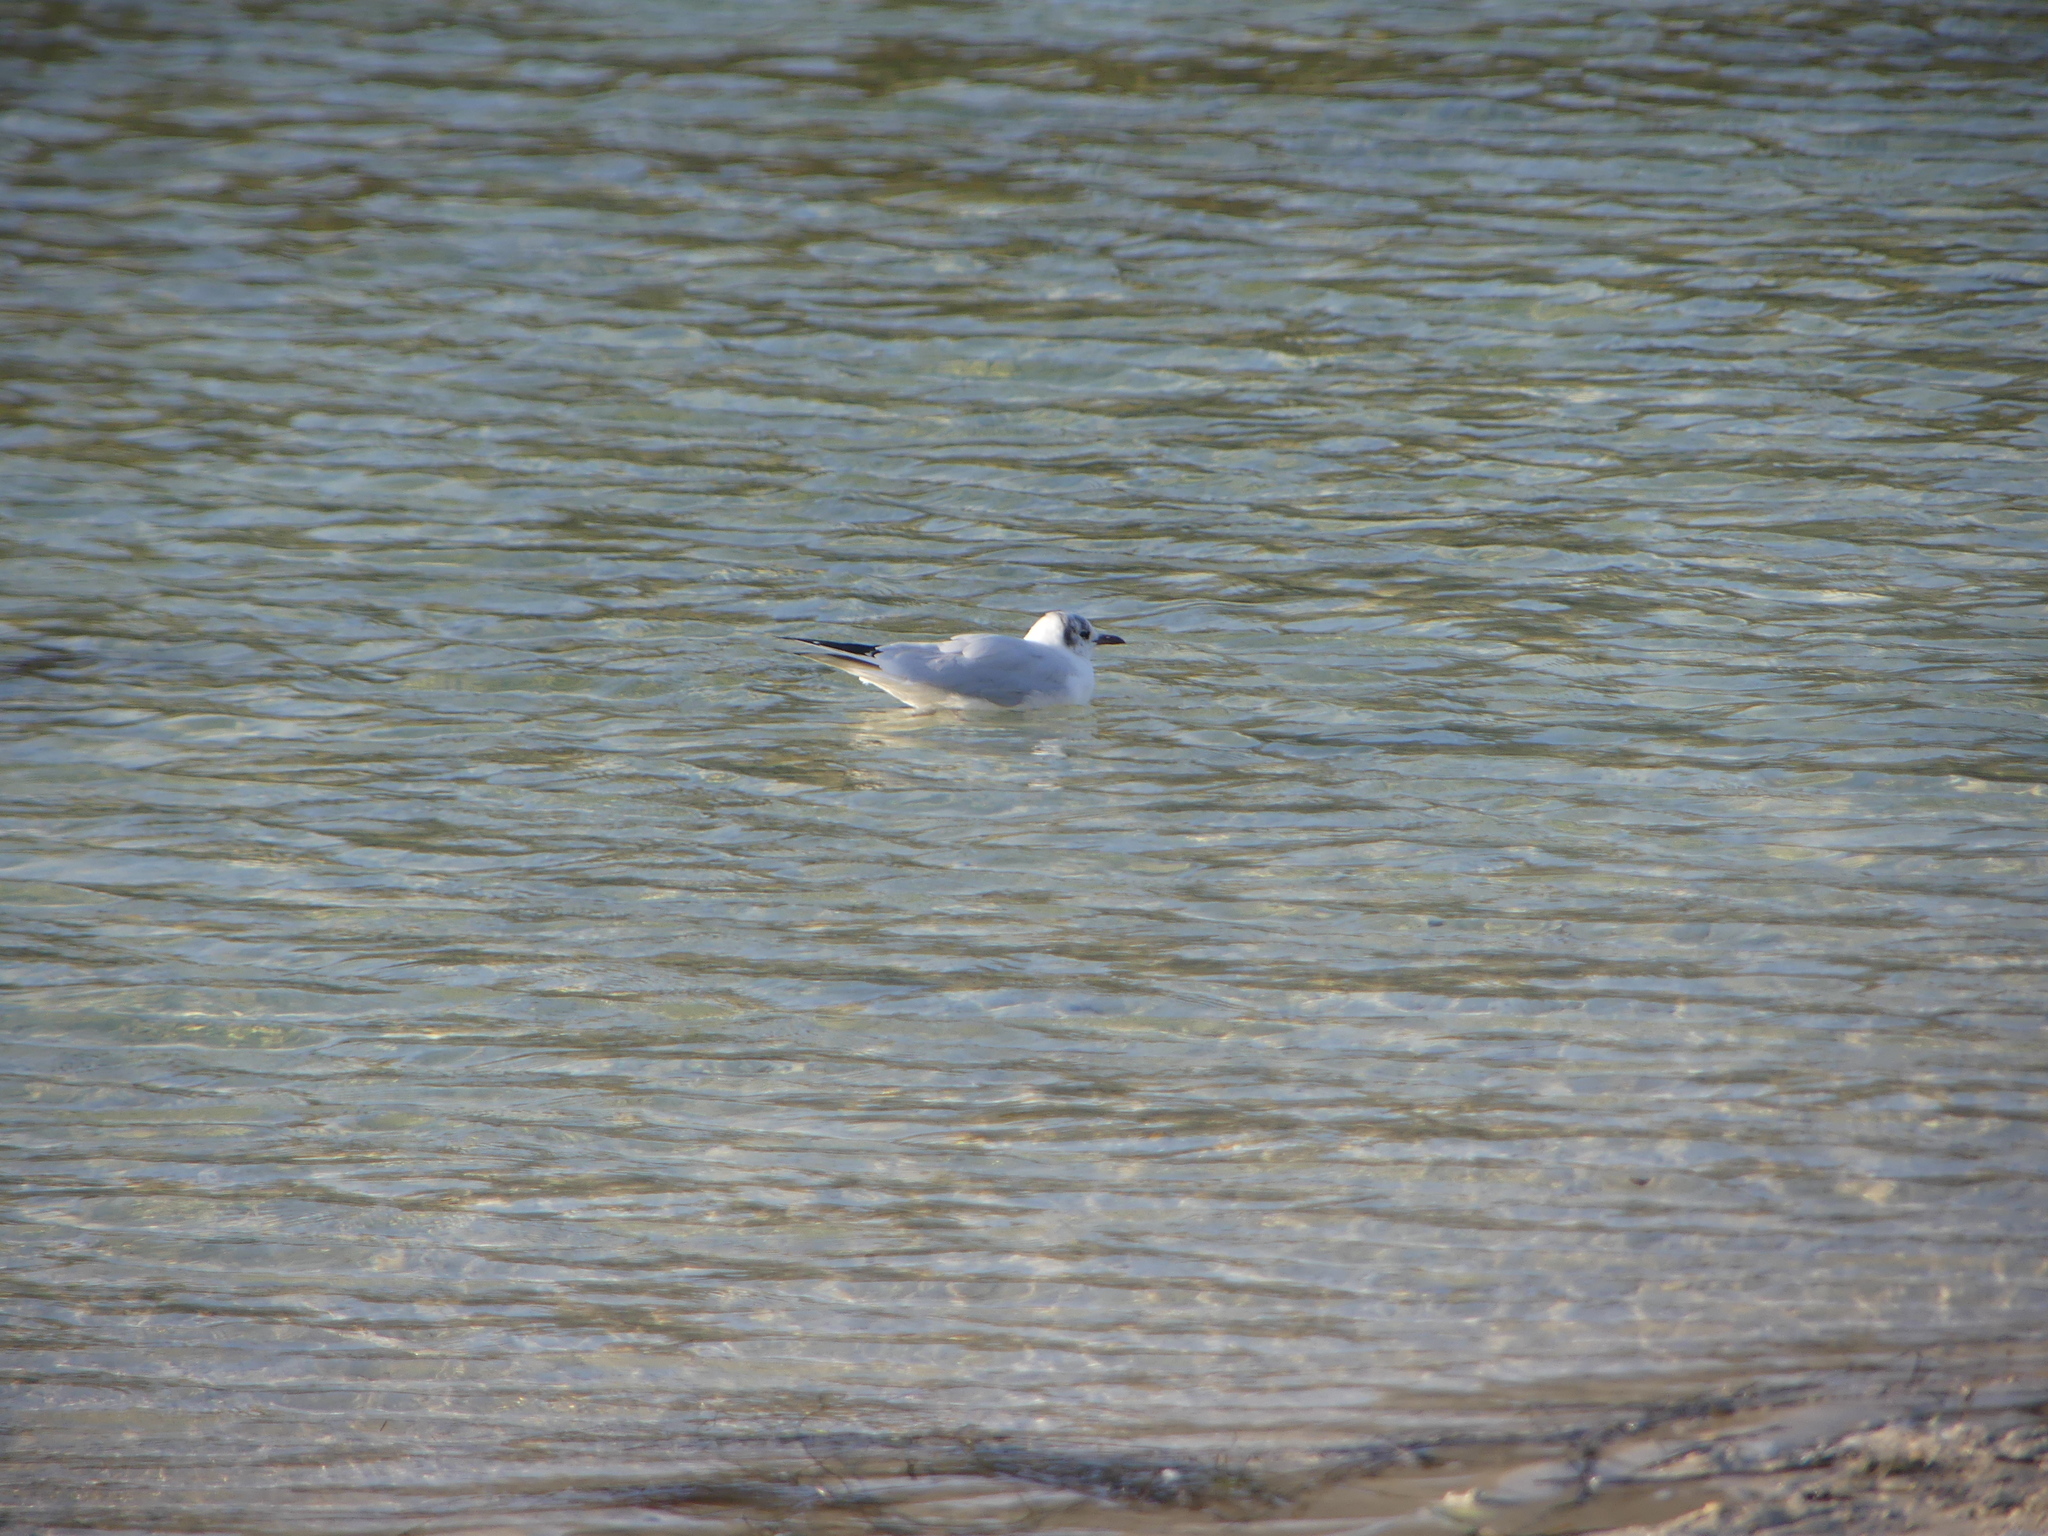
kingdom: Animalia
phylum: Chordata
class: Aves
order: Charadriiformes
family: Laridae
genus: Chroicocephalus
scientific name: Chroicocephalus ridibundus
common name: Black-headed gull
